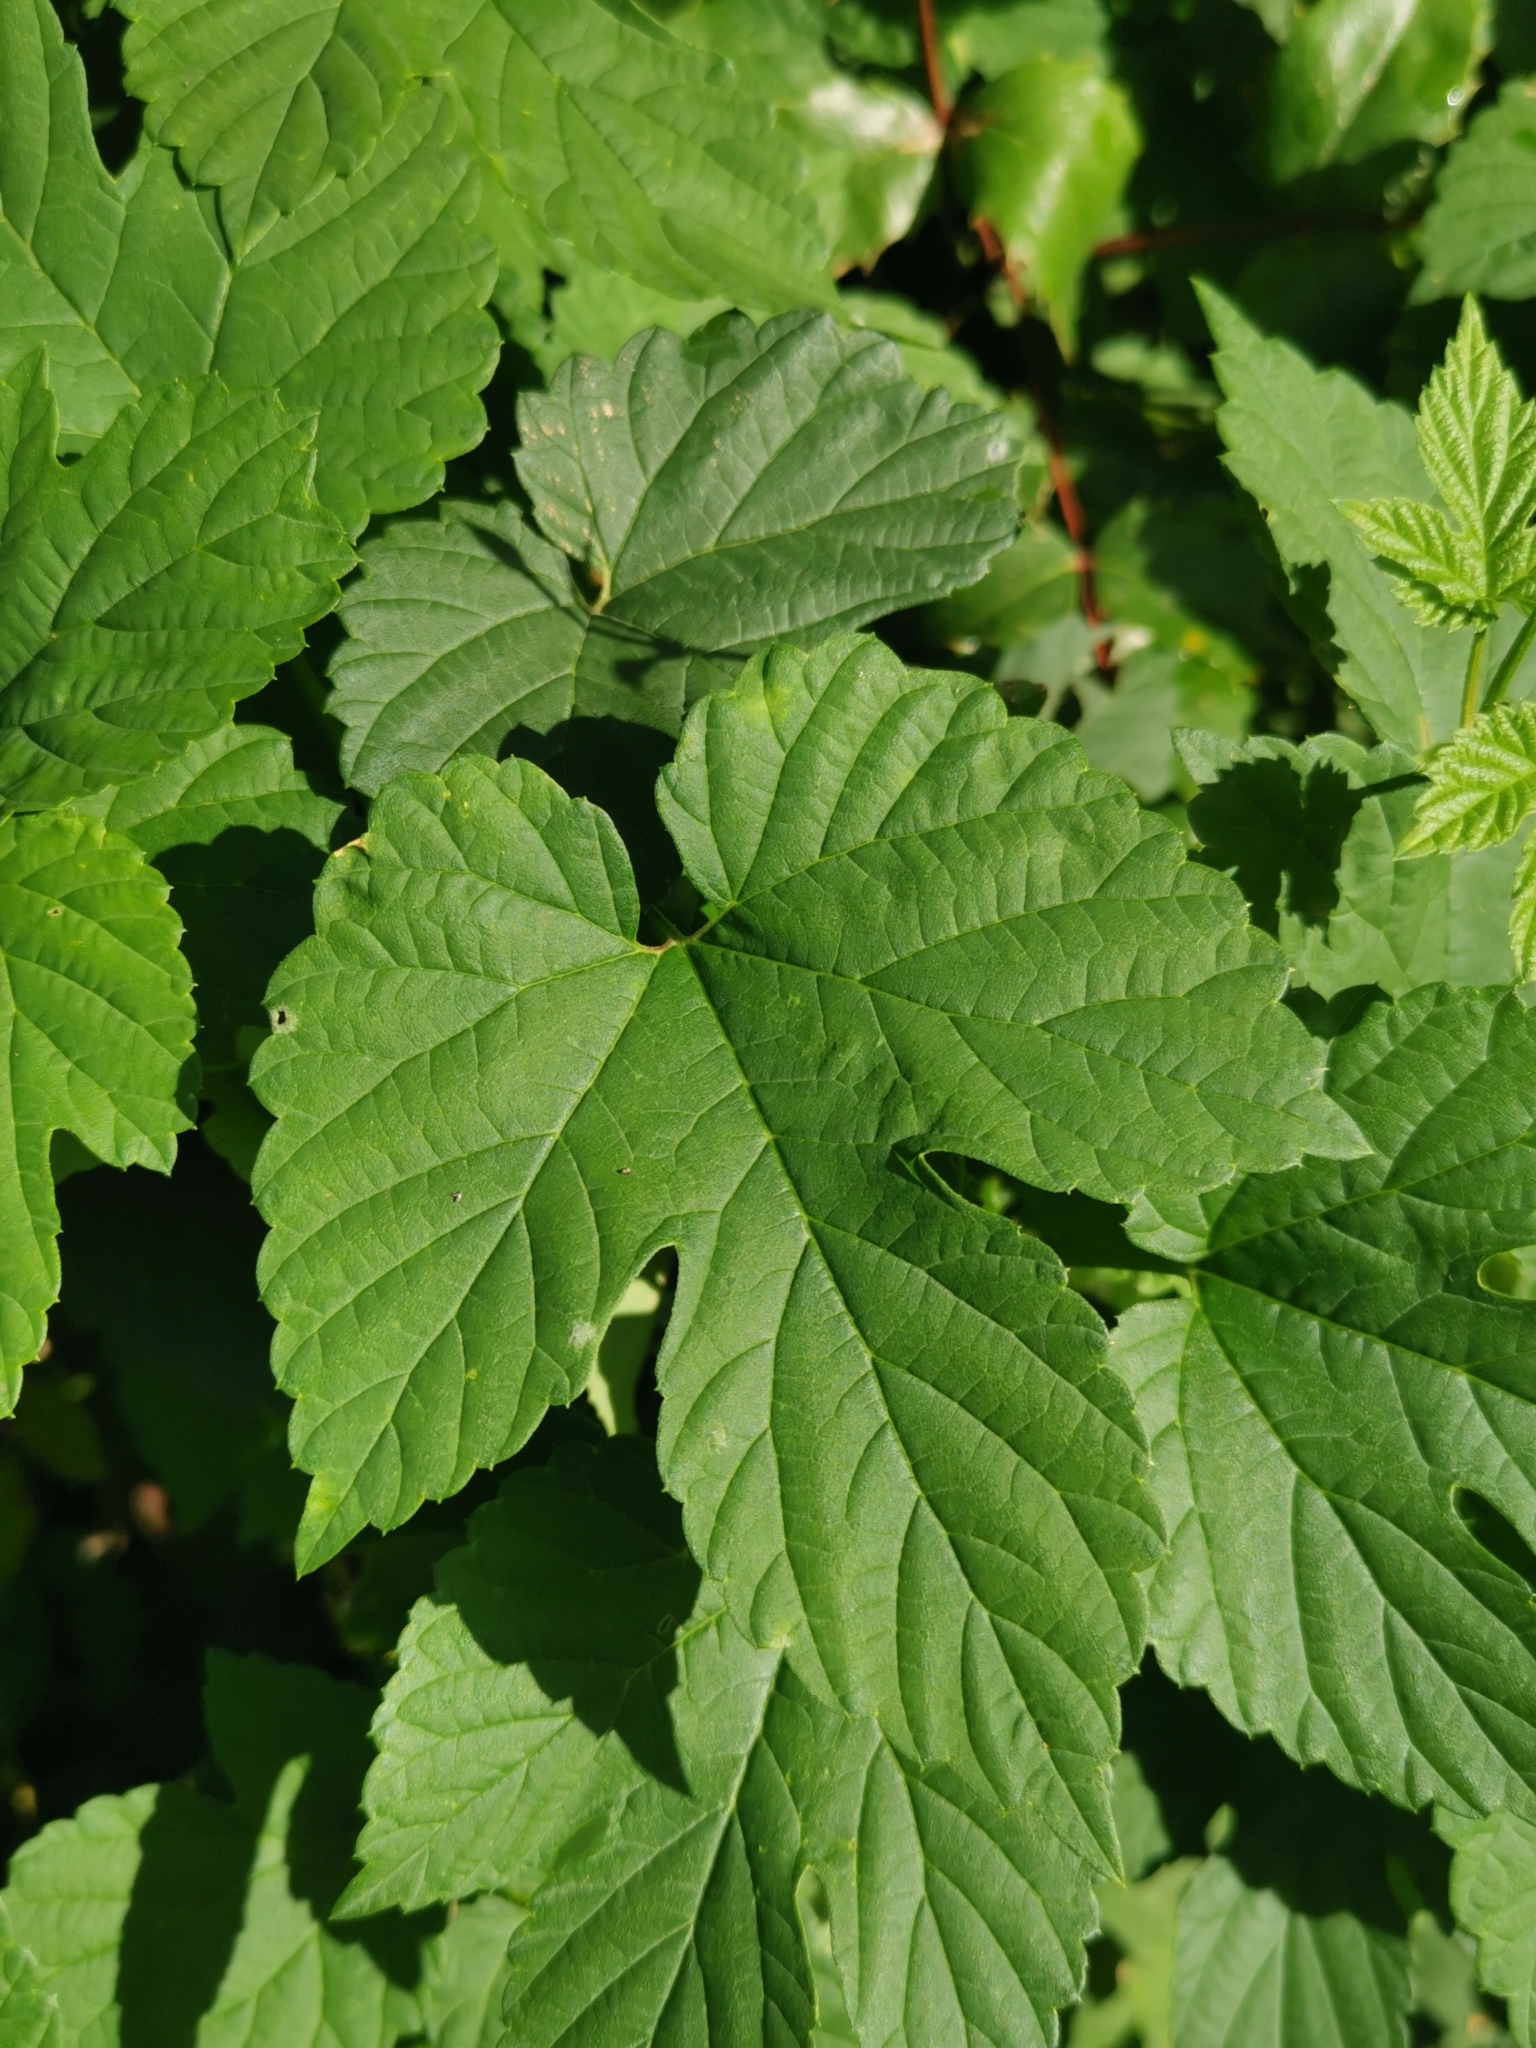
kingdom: Plantae
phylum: Tracheophyta
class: Magnoliopsida
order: Rosales
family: Cannabaceae
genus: Humulus
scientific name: Humulus lupulus
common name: Hop
